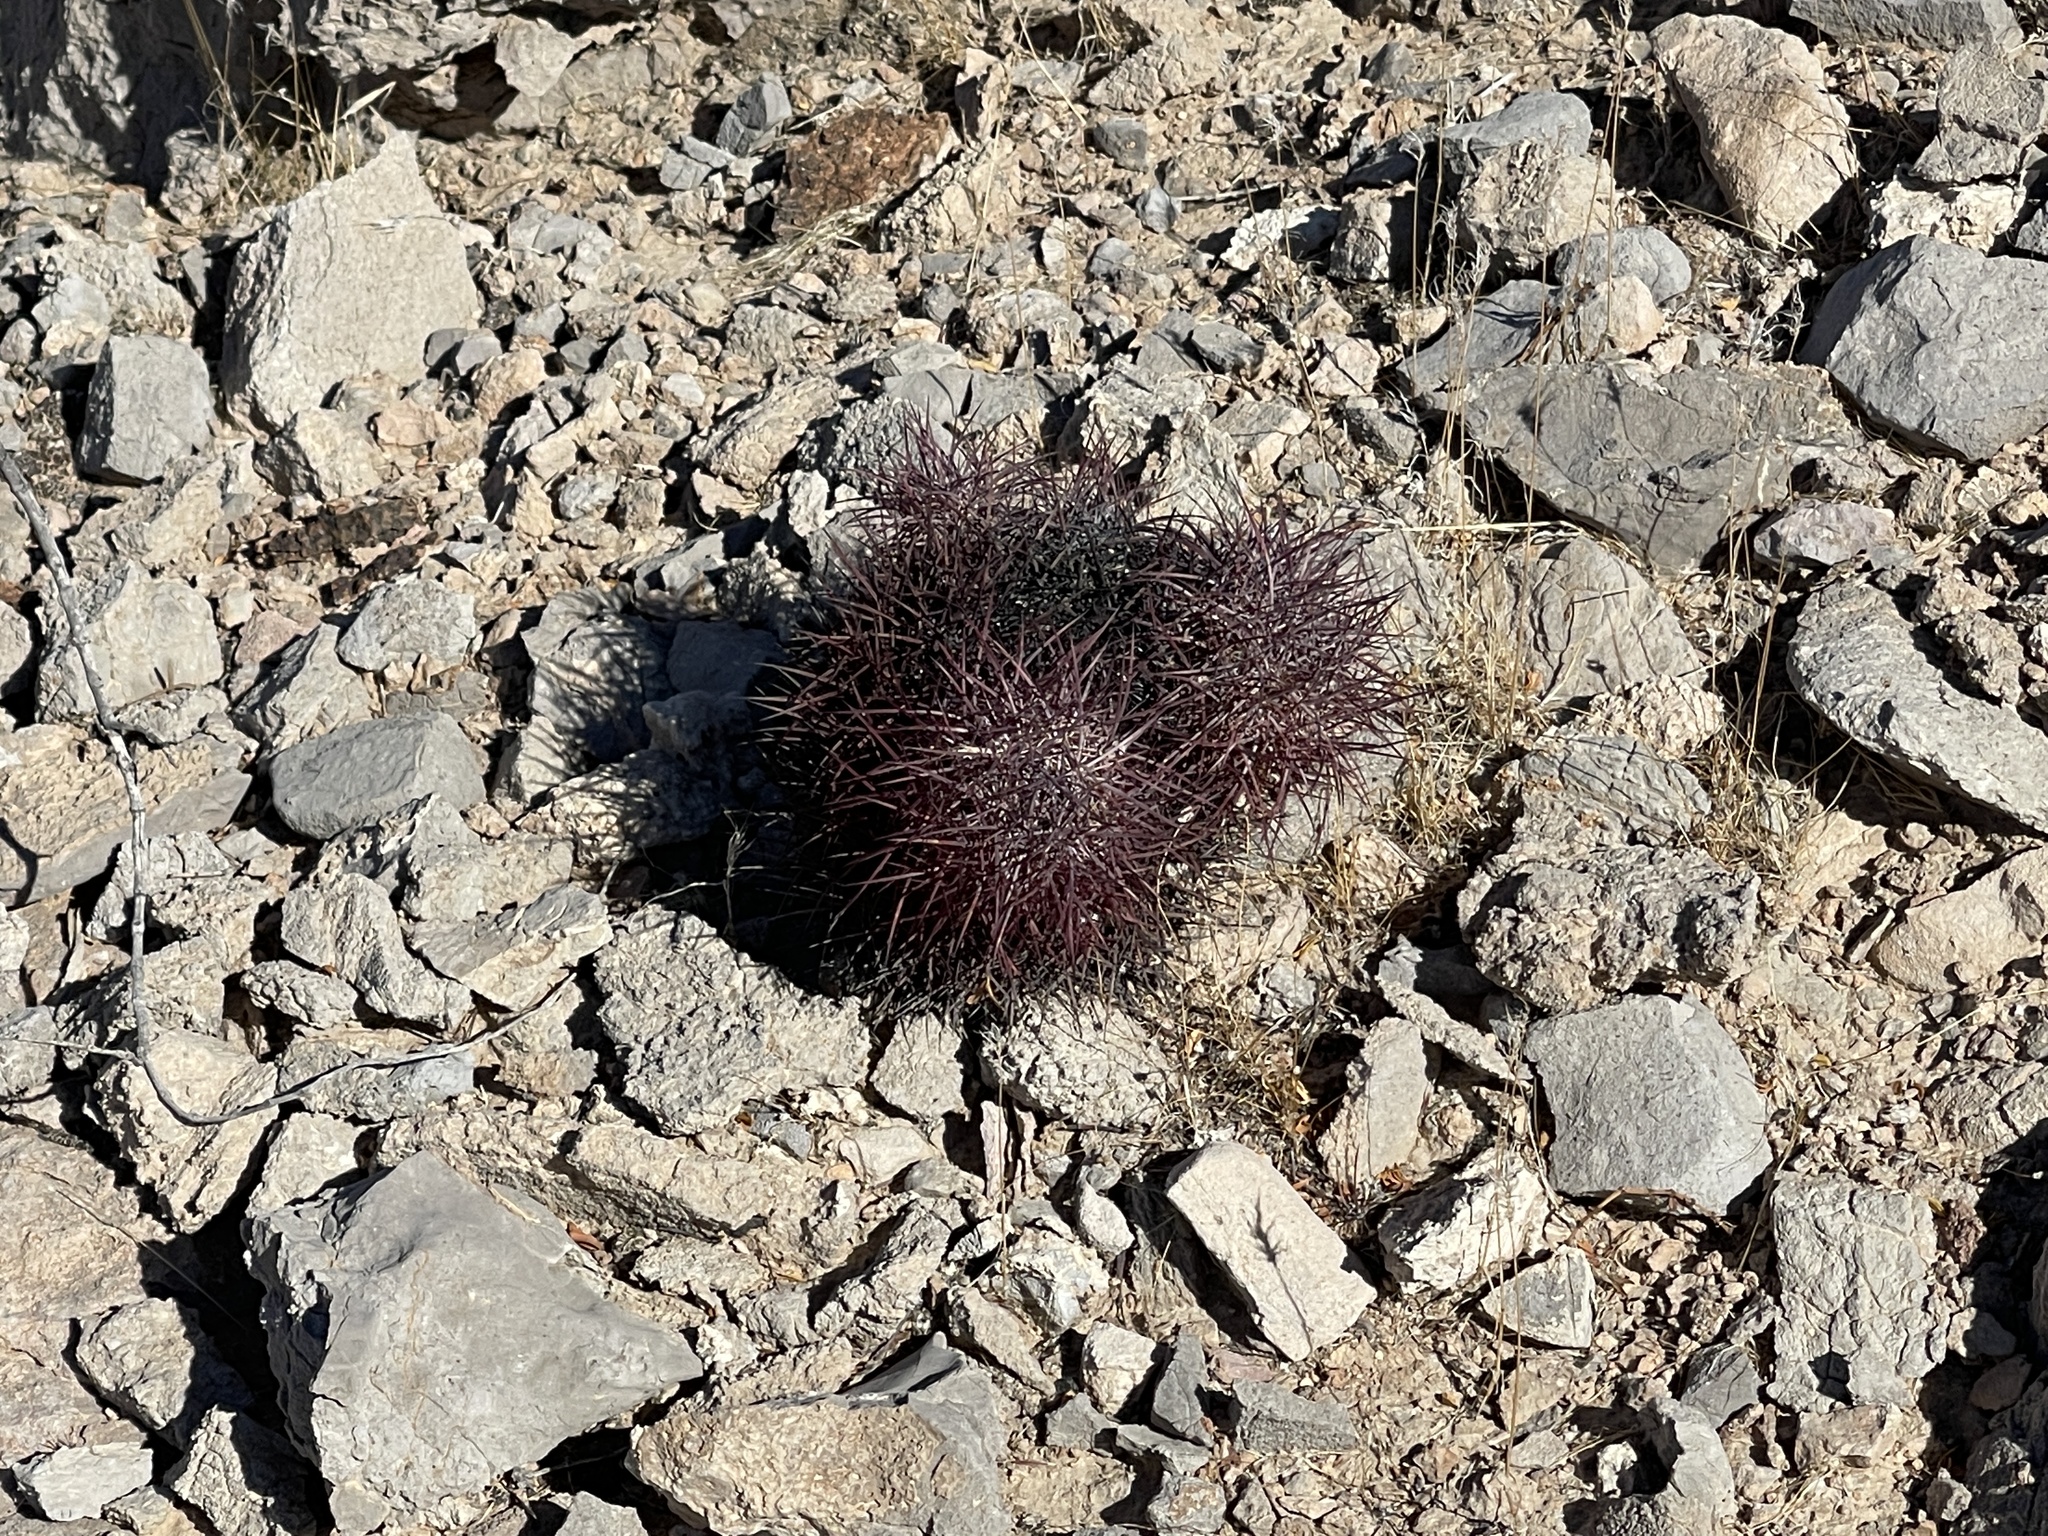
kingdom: Plantae
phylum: Tracheophyta
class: Magnoliopsida
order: Caryophyllales
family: Cactaceae
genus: Sclerocactus
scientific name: Sclerocactus johnsonii
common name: Eight-spine fishhook cactus
